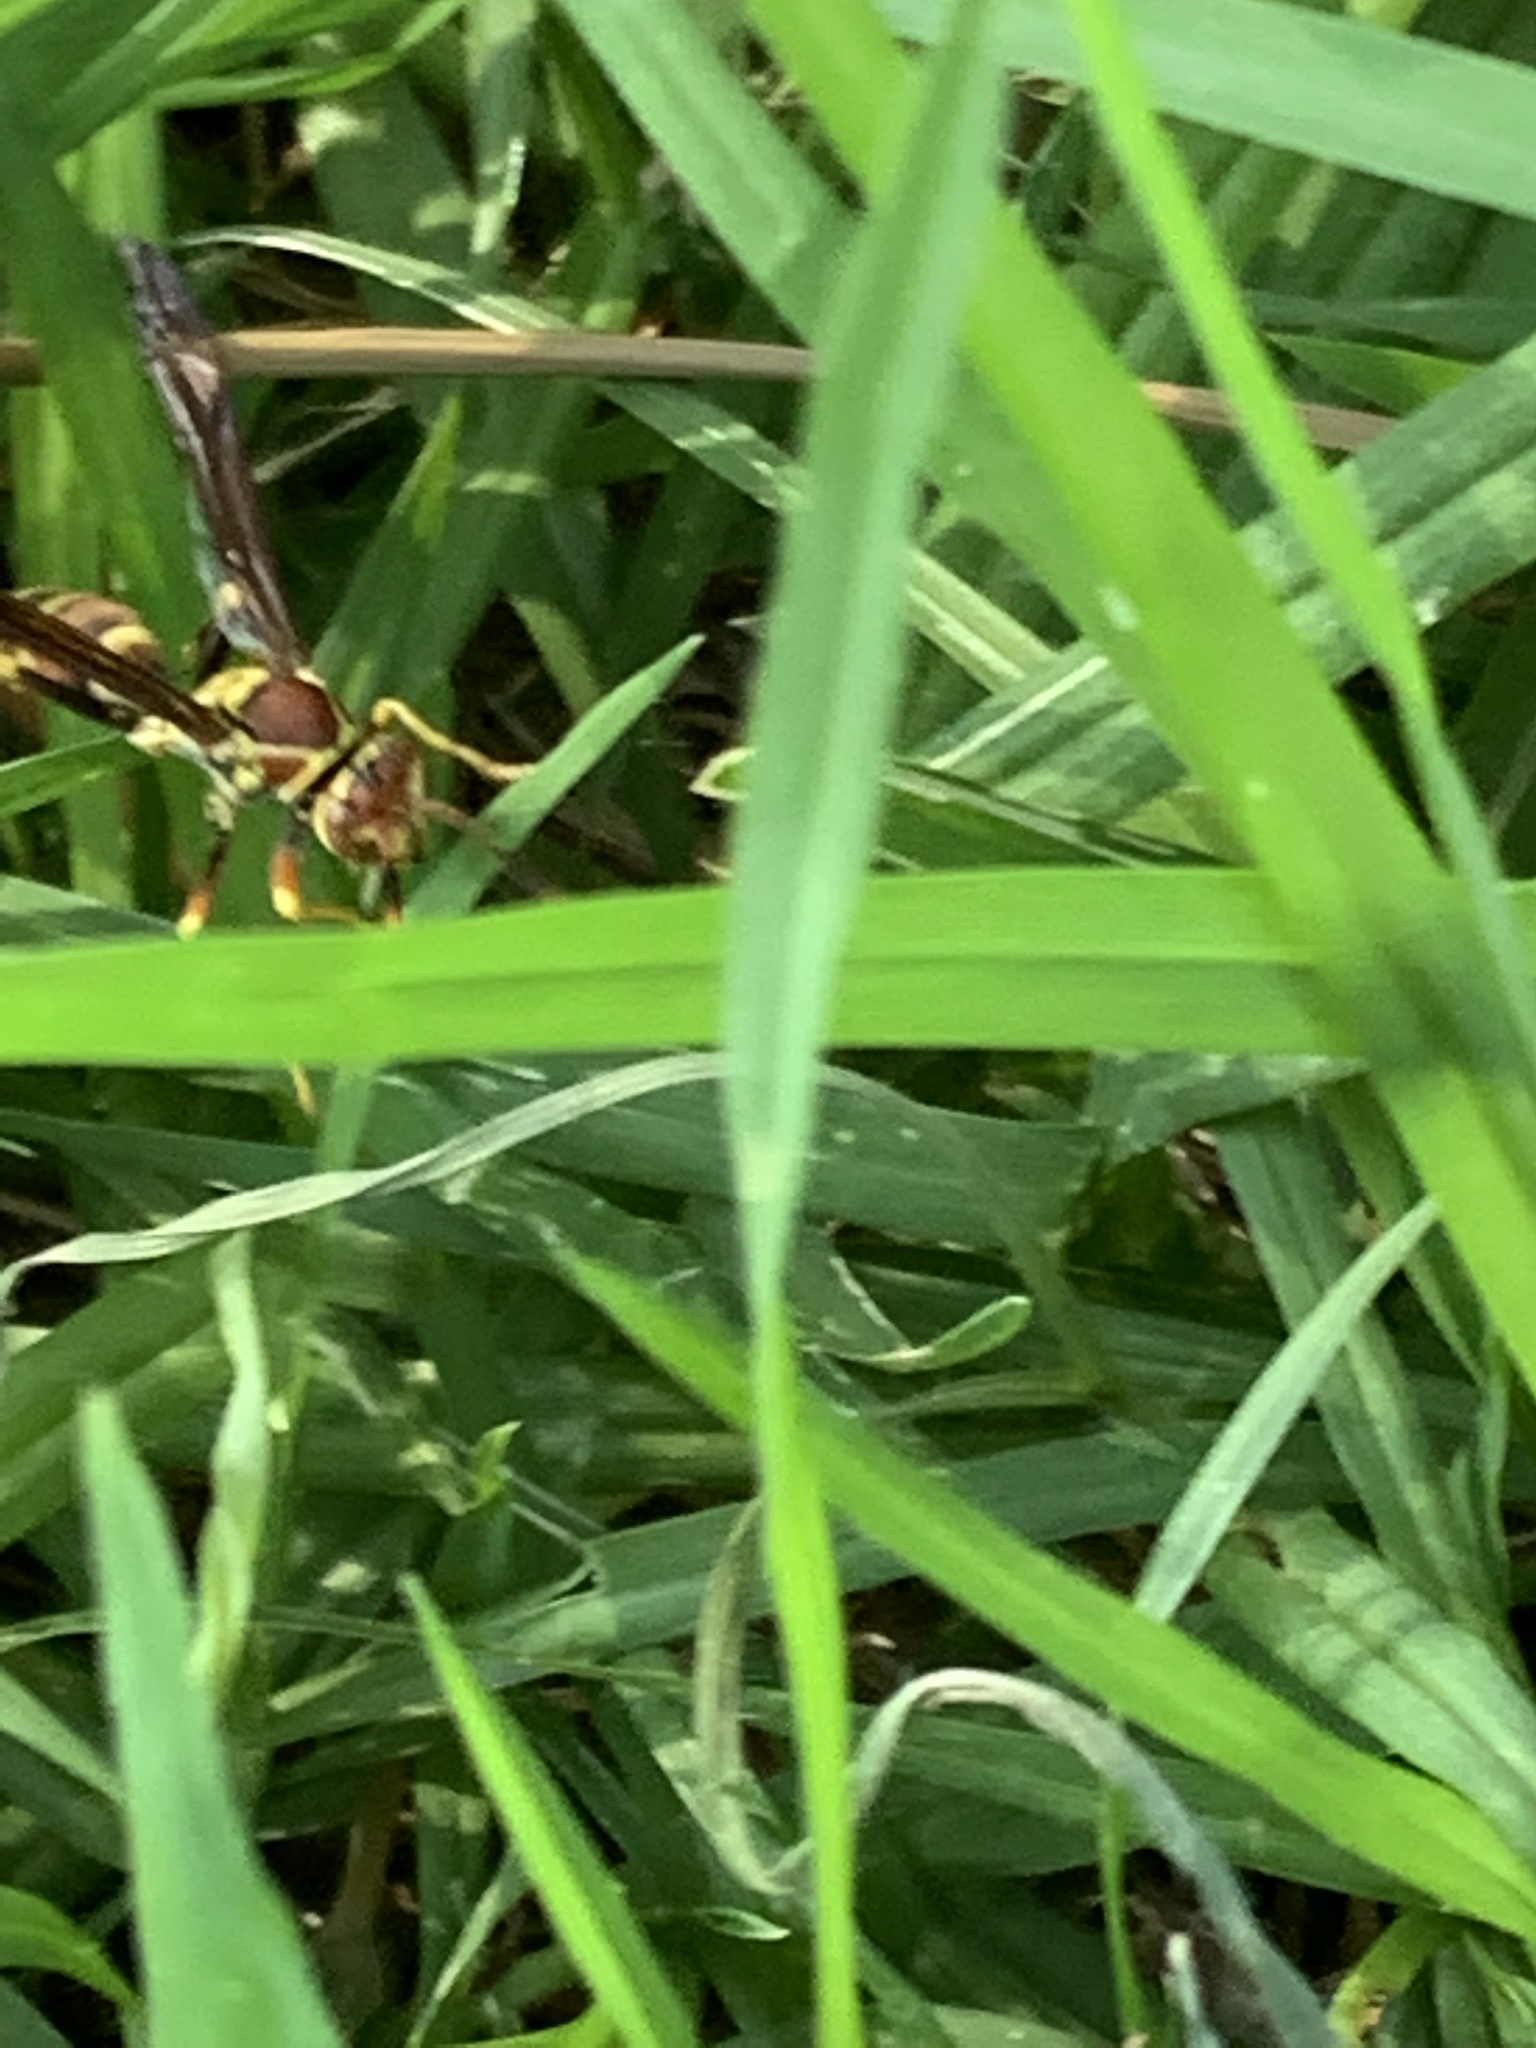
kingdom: Animalia
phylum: Arthropoda
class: Insecta
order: Hymenoptera
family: Eumenidae
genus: Polistes
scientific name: Polistes exclamans
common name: Paper wasp
